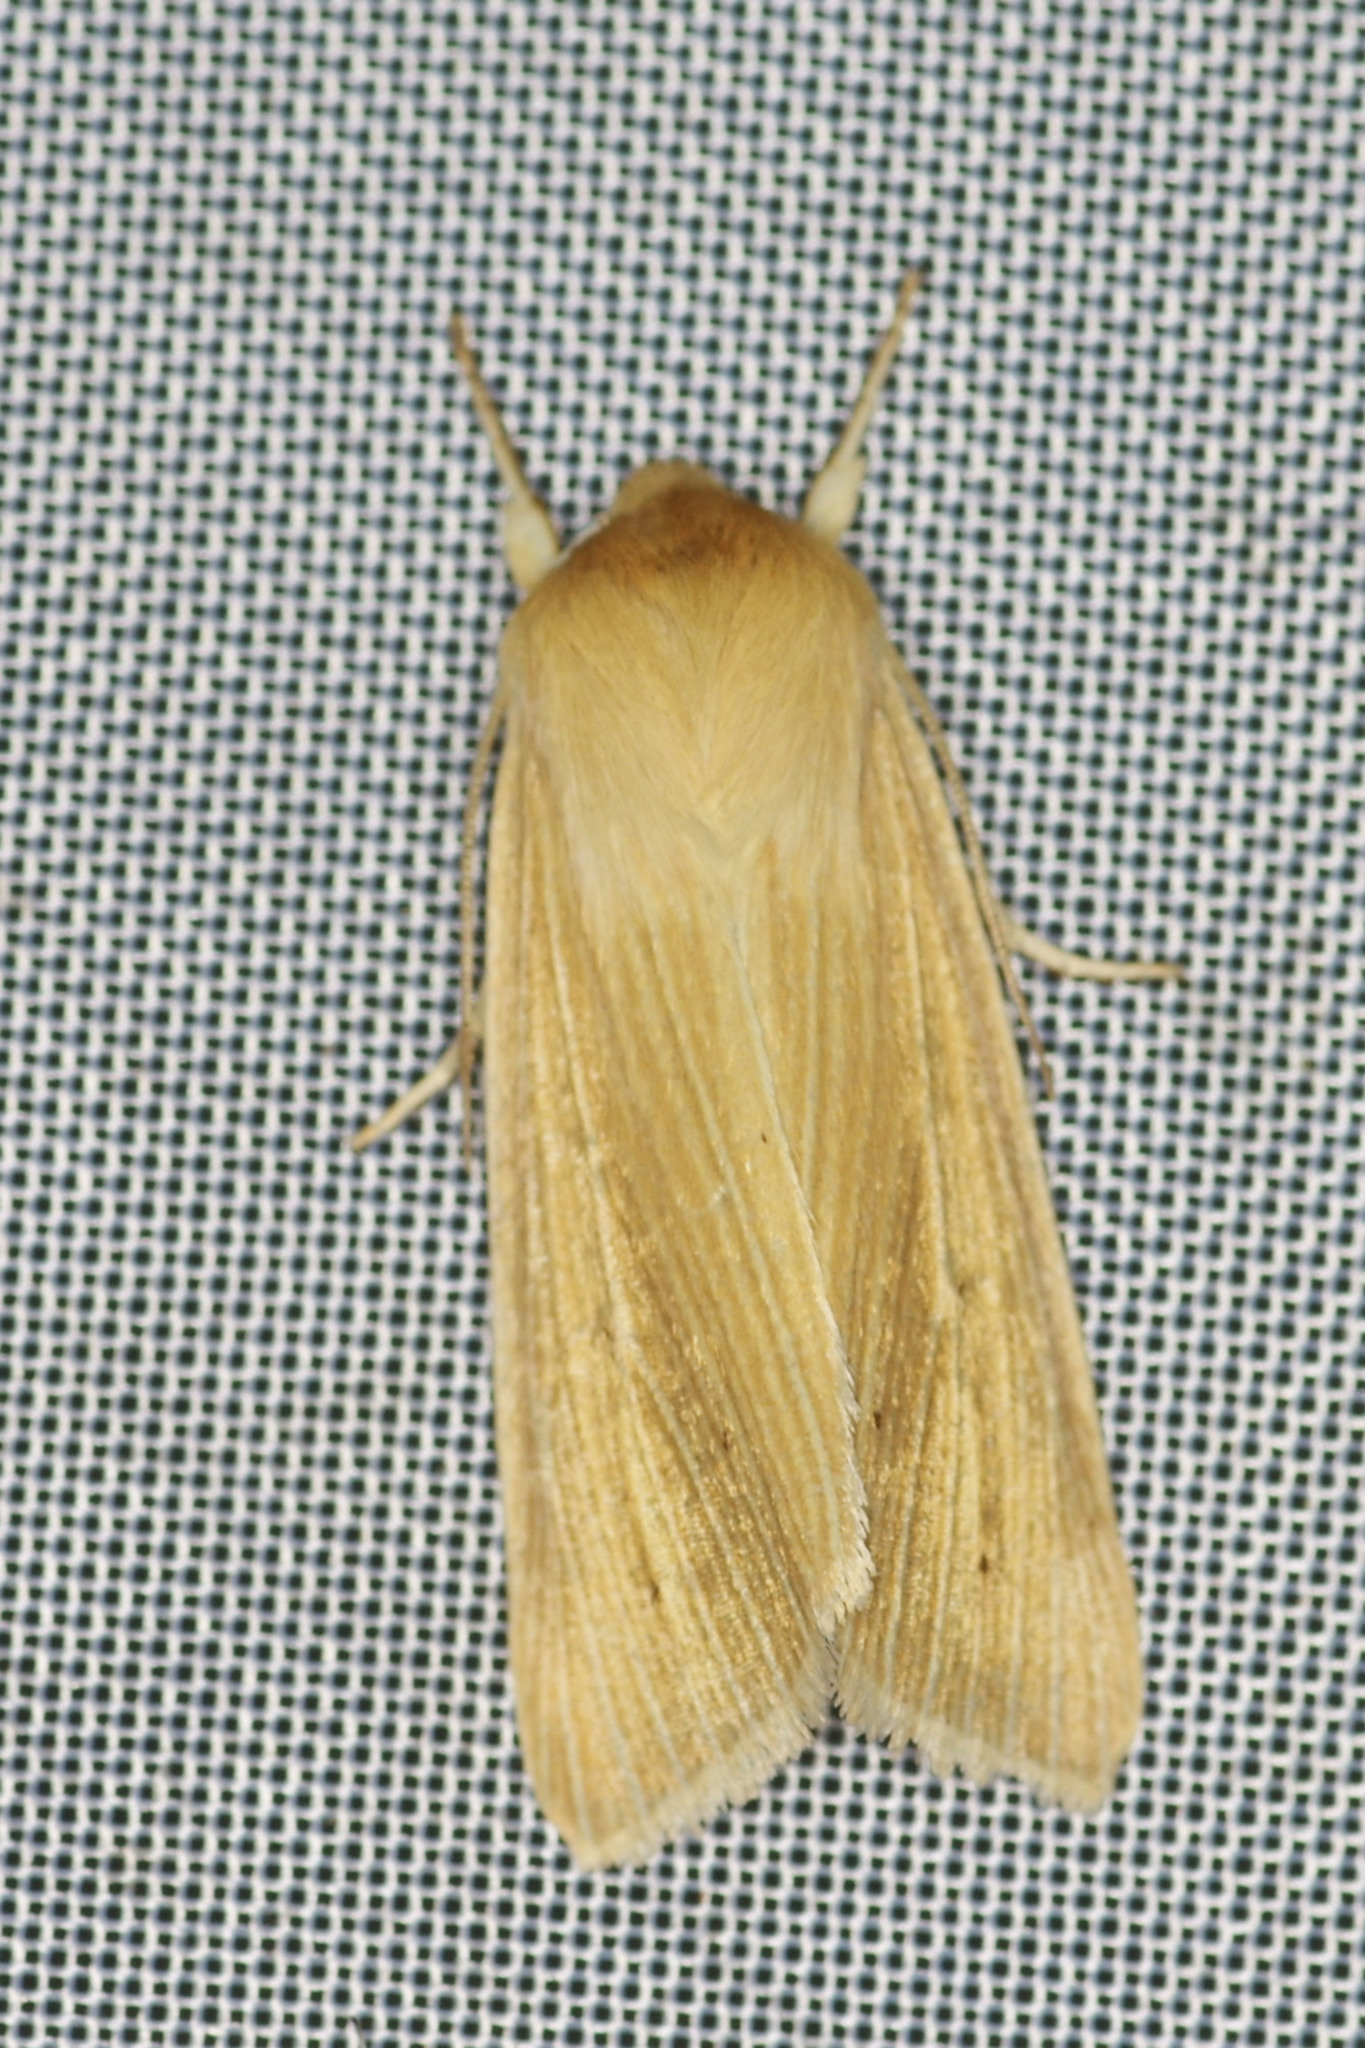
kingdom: Animalia
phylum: Arthropoda
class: Insecta
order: Lepidoptera
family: Noctuidae
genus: Mythimna
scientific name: Mythimna pallens
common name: Common wainscot
